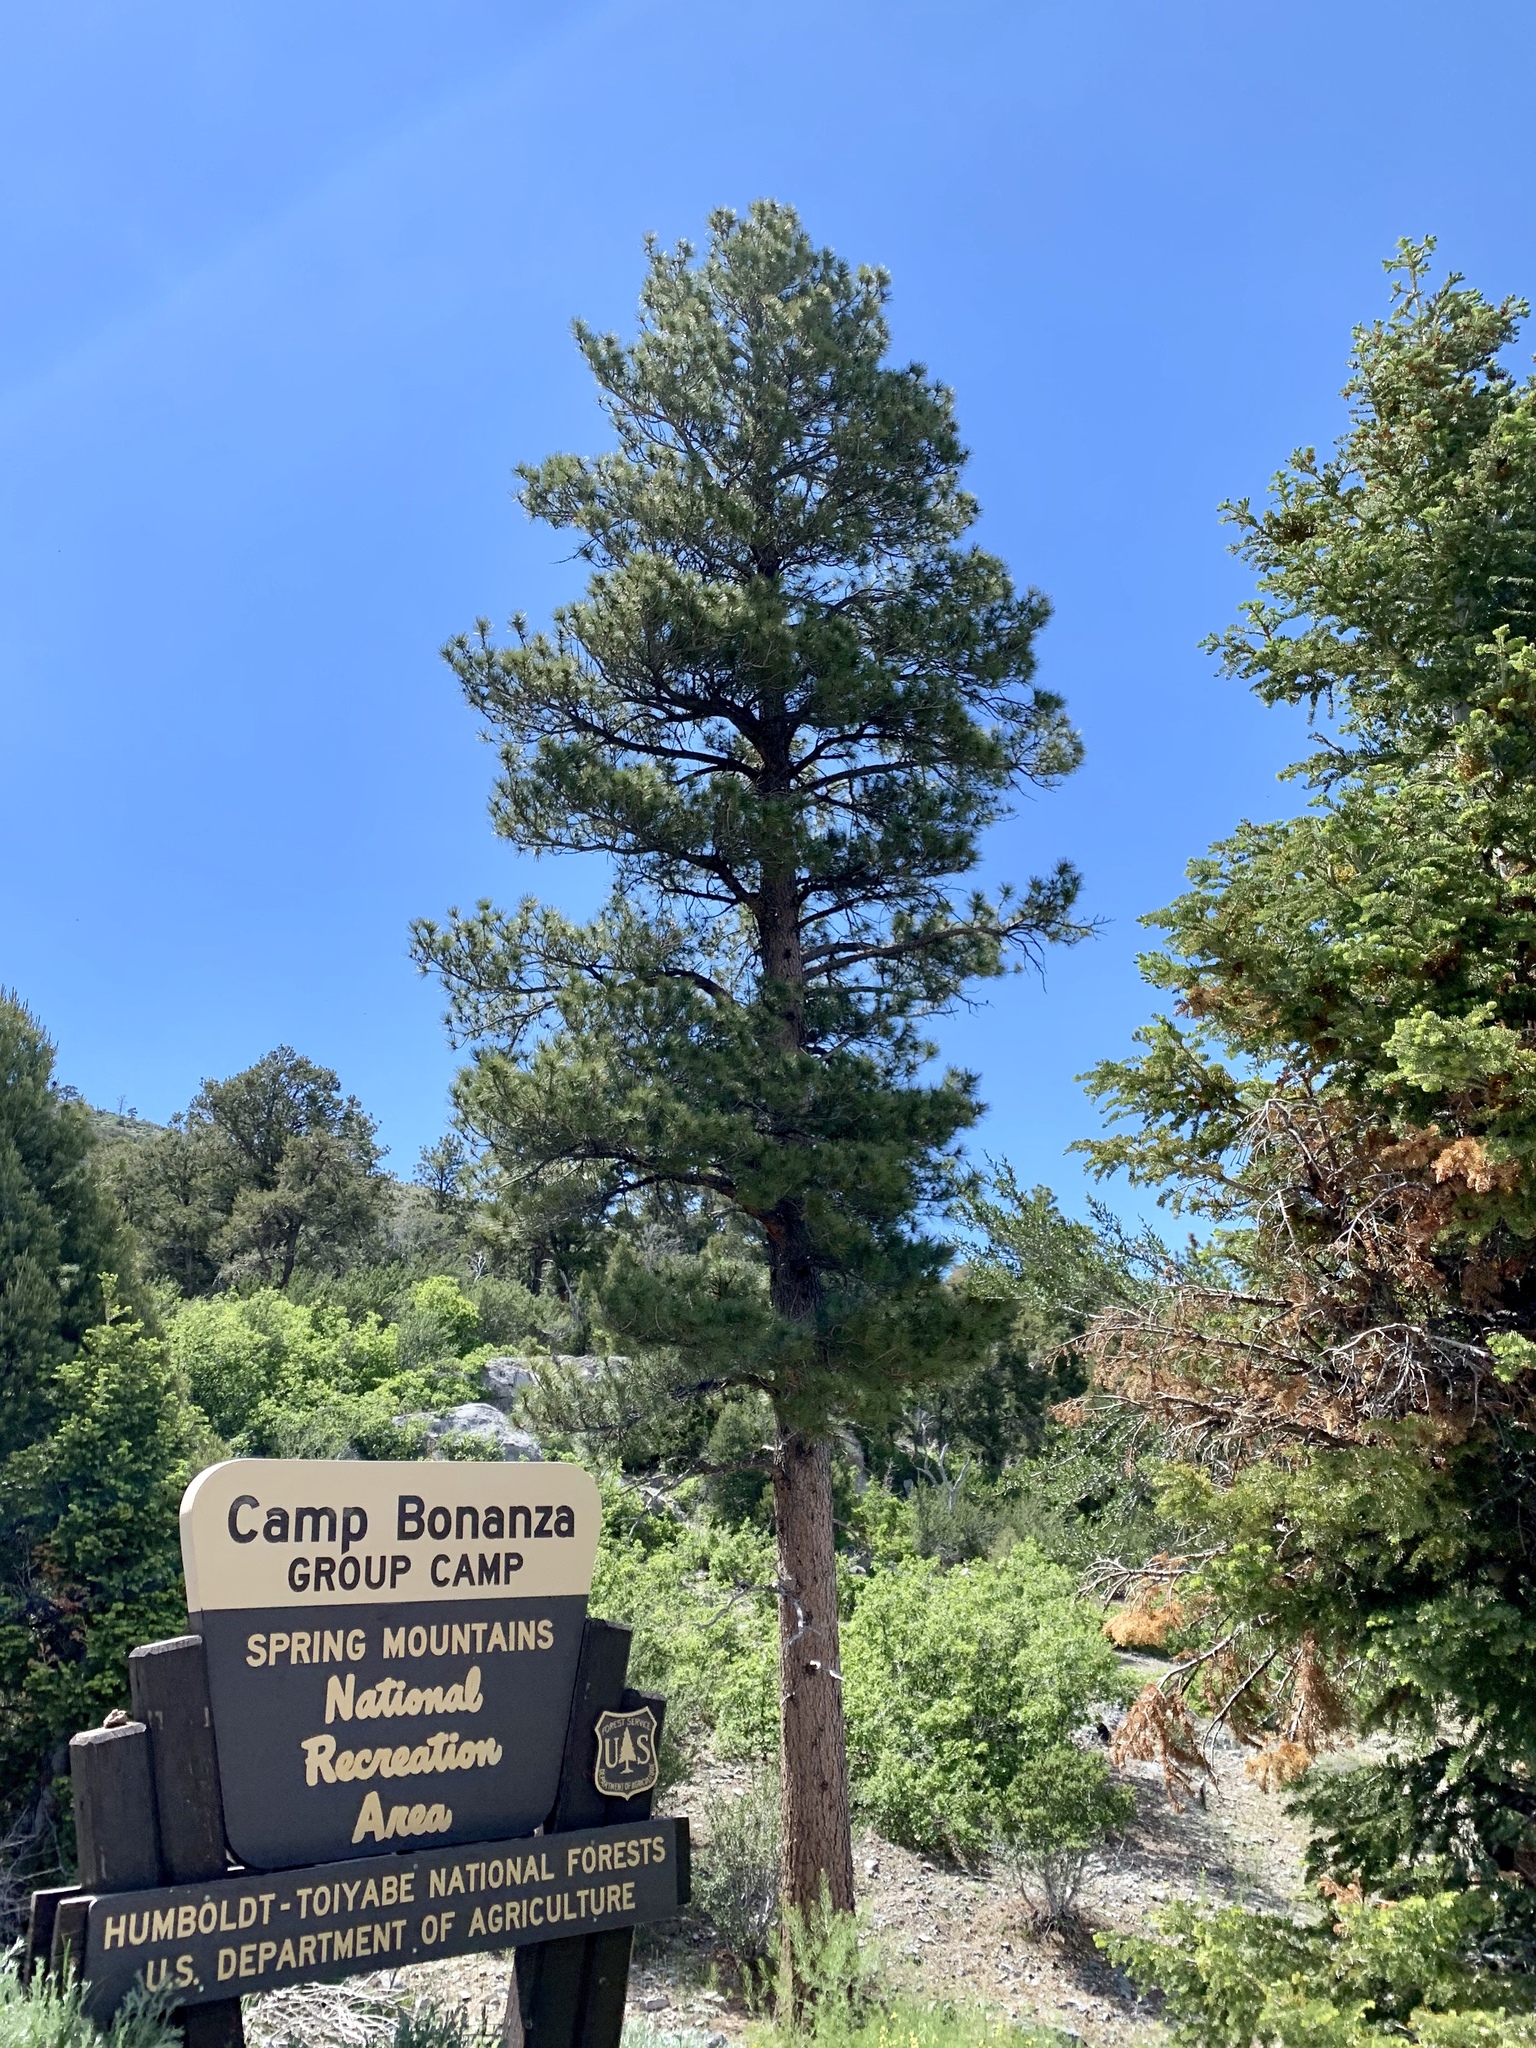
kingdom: Plantae
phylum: Tracheophyta
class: Pinopsida
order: Pinales
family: Pinaceae
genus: Pinus
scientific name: Pinus ponderosa
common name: Western yellow-pine
